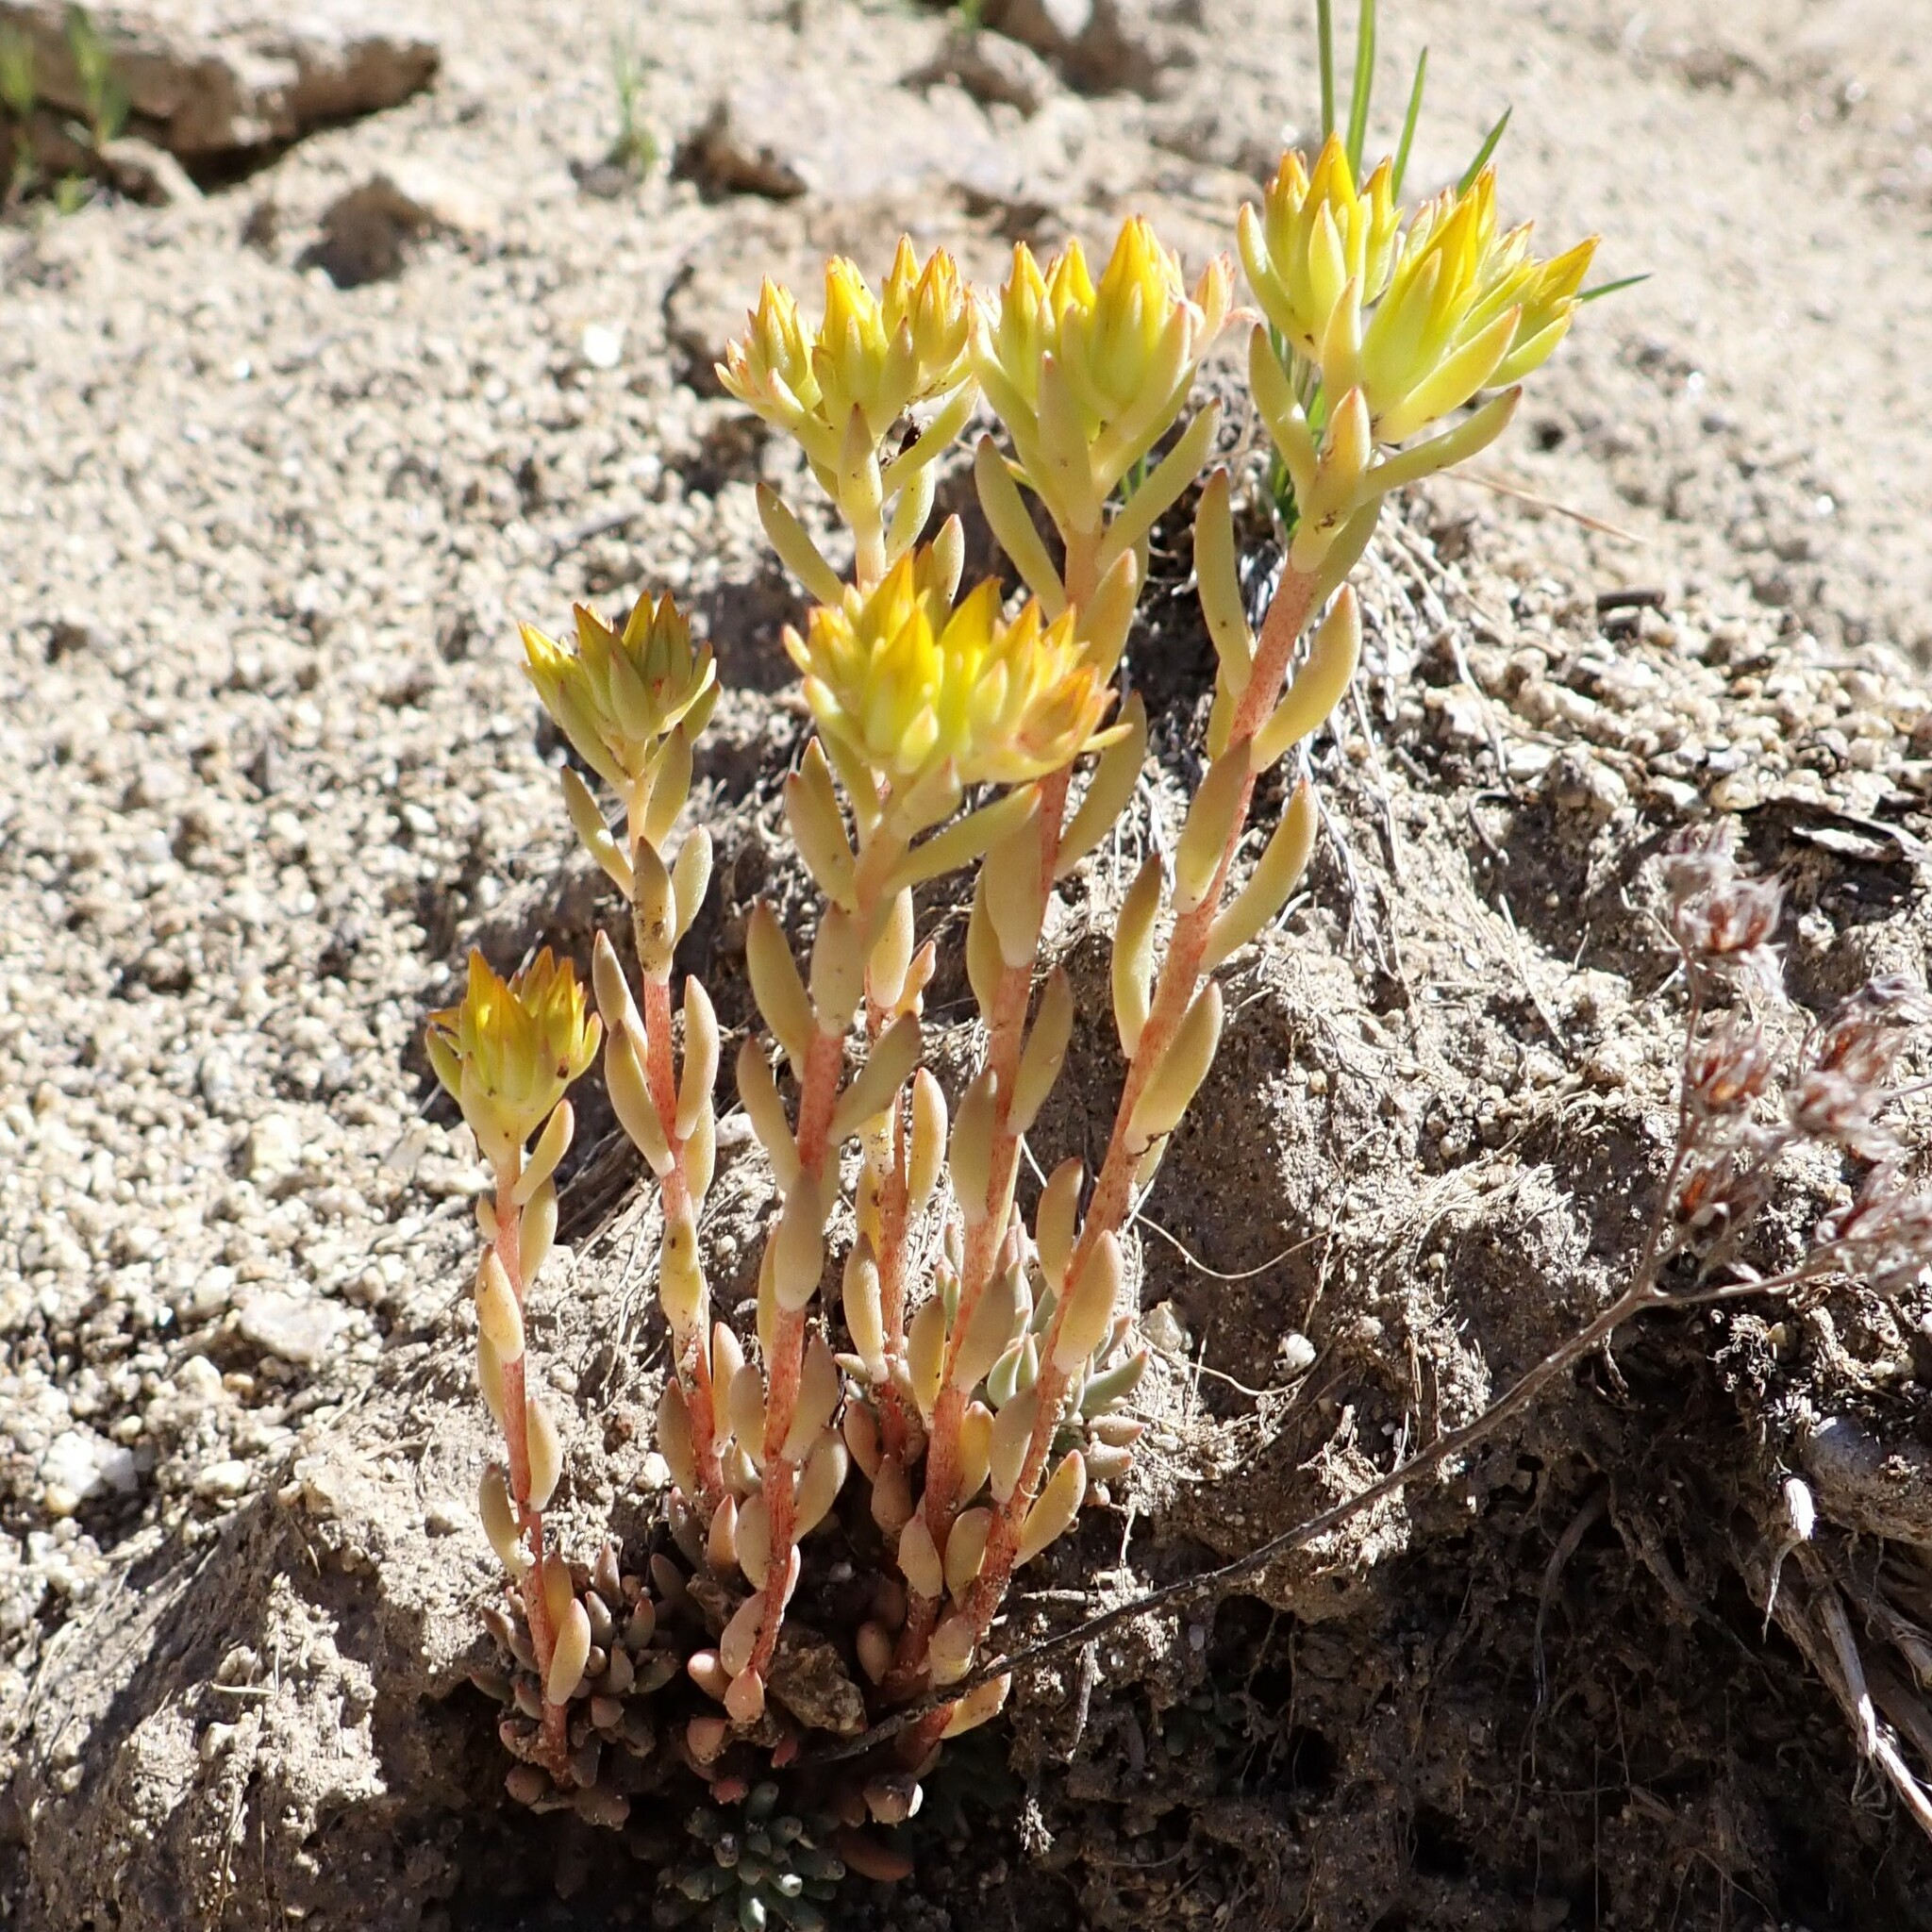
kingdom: Plantae
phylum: Tracheophyta
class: Magnoliopsida
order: Saxifragales
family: Crassulaceae
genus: Sedum
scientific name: Sedum lanceolatum
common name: Common stonecrop
